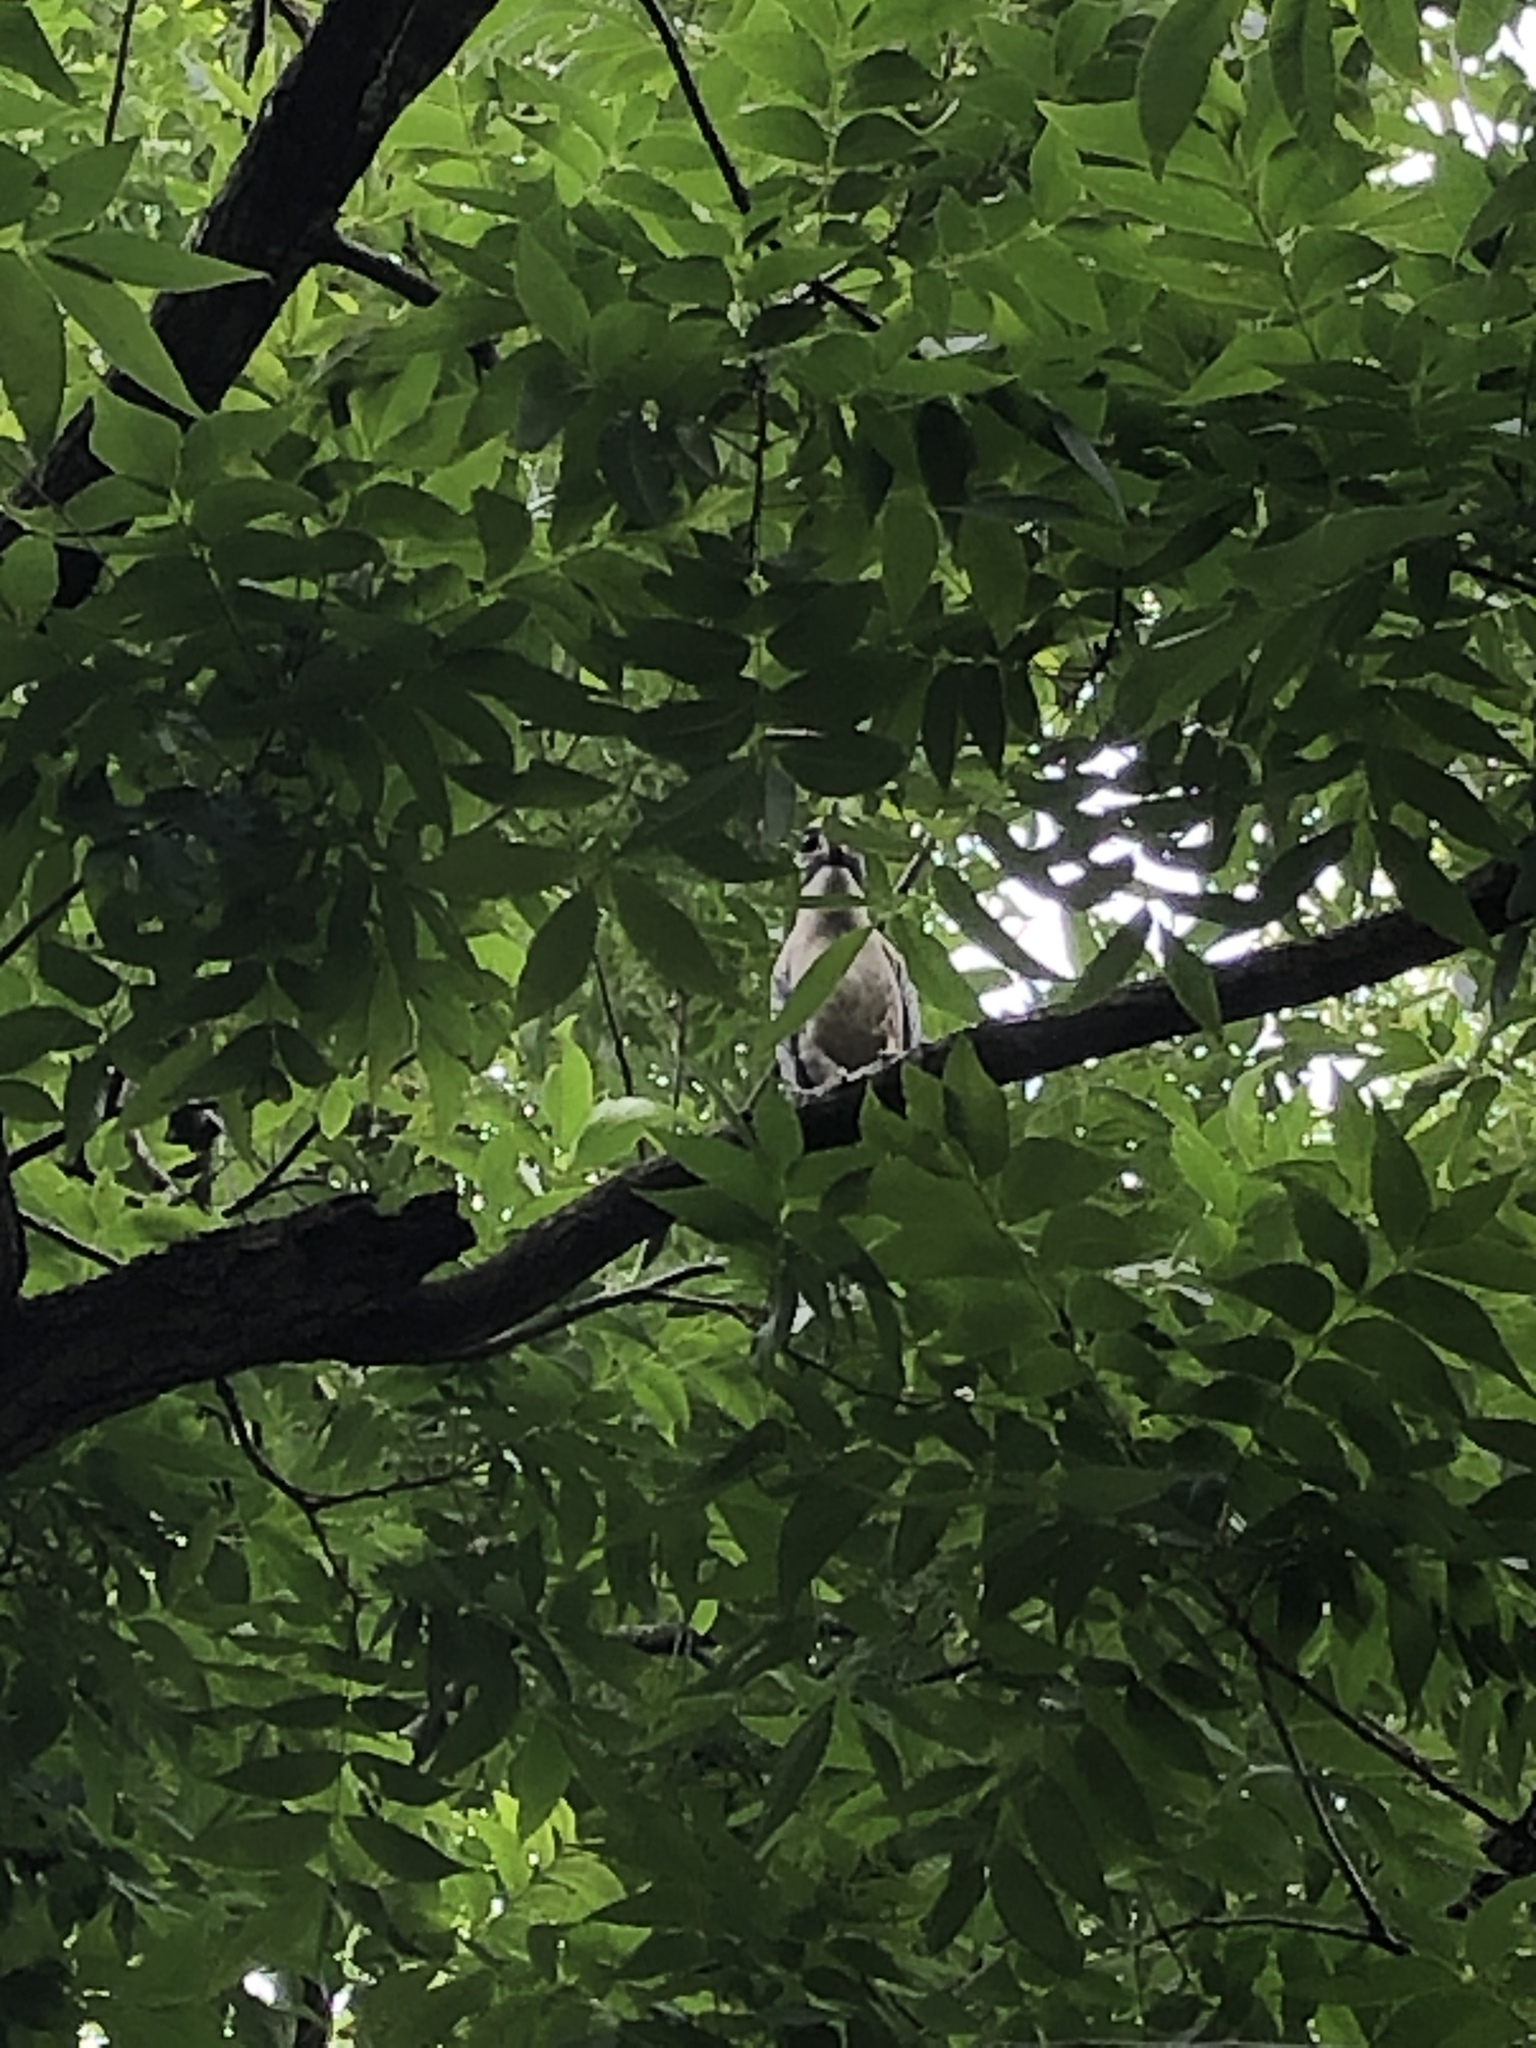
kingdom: Animalia
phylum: Chordata
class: Aves
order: Pelecaniformes
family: Ardeidae
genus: Nyctanassa
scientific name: Nyctanassa violacea
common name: Yellow-crowned night heron
